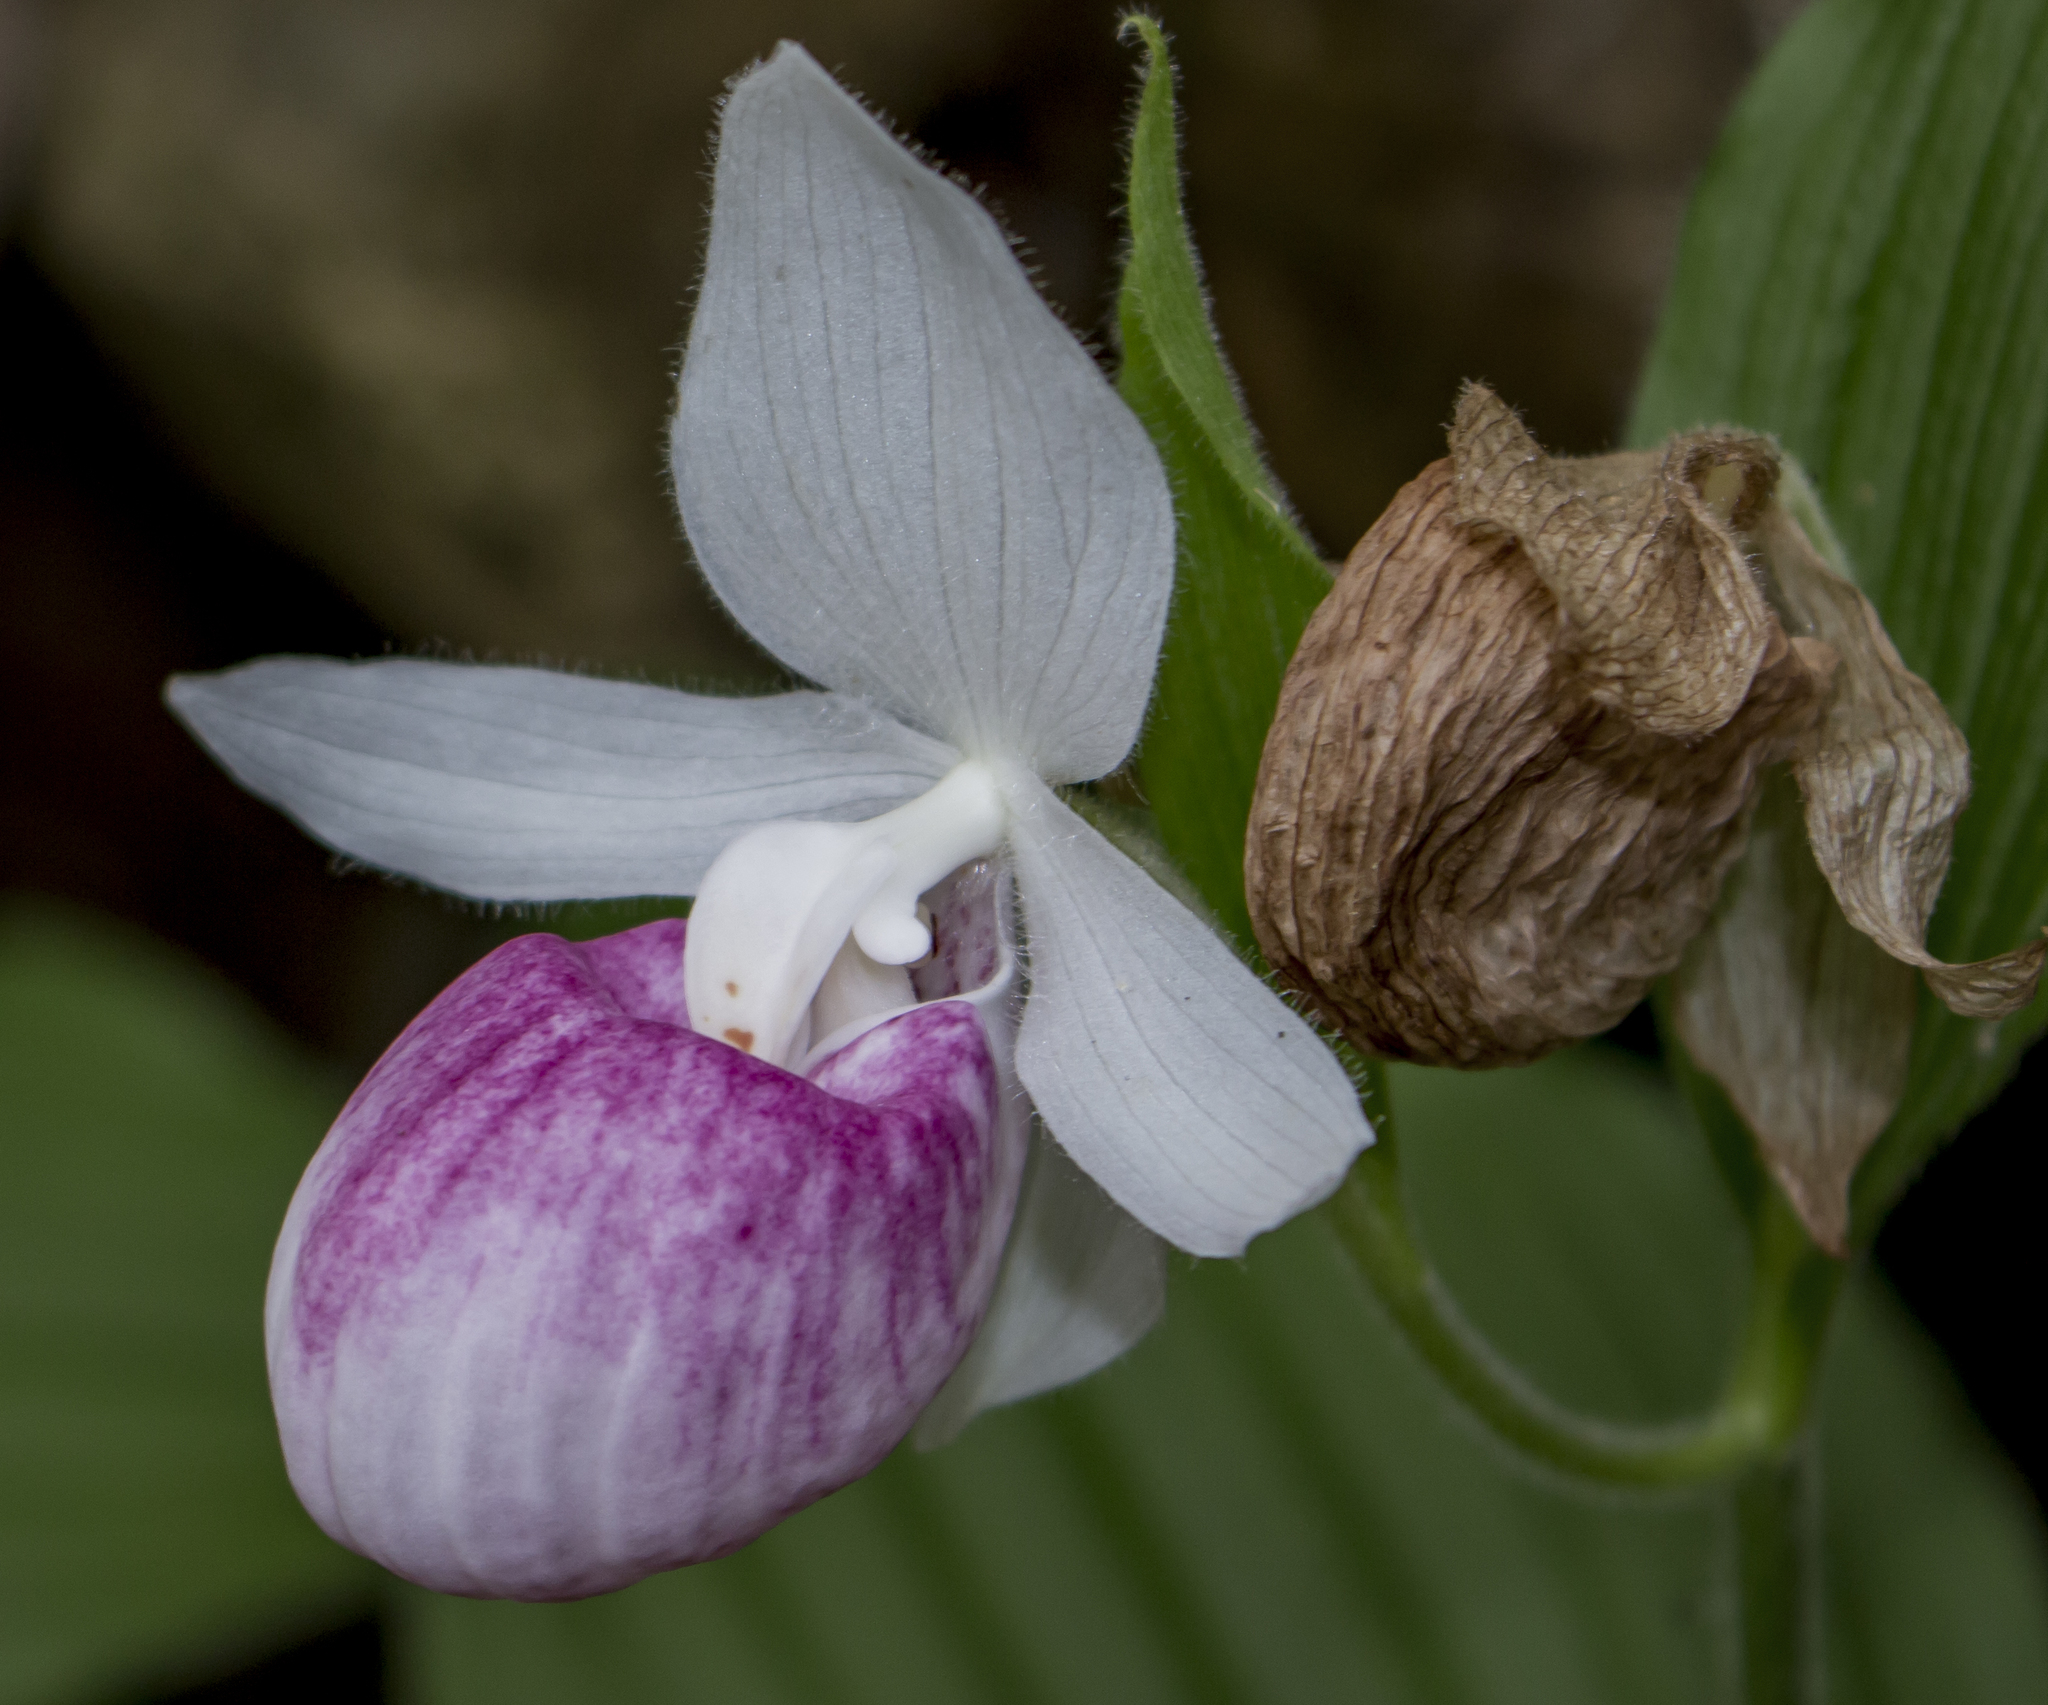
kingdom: Plantae
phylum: Tracheophyta
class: Liliopsida
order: Asparagales
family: Orchidaceae
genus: Cypripedium
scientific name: Cypripedium reginae
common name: Queen lady's-slipper
